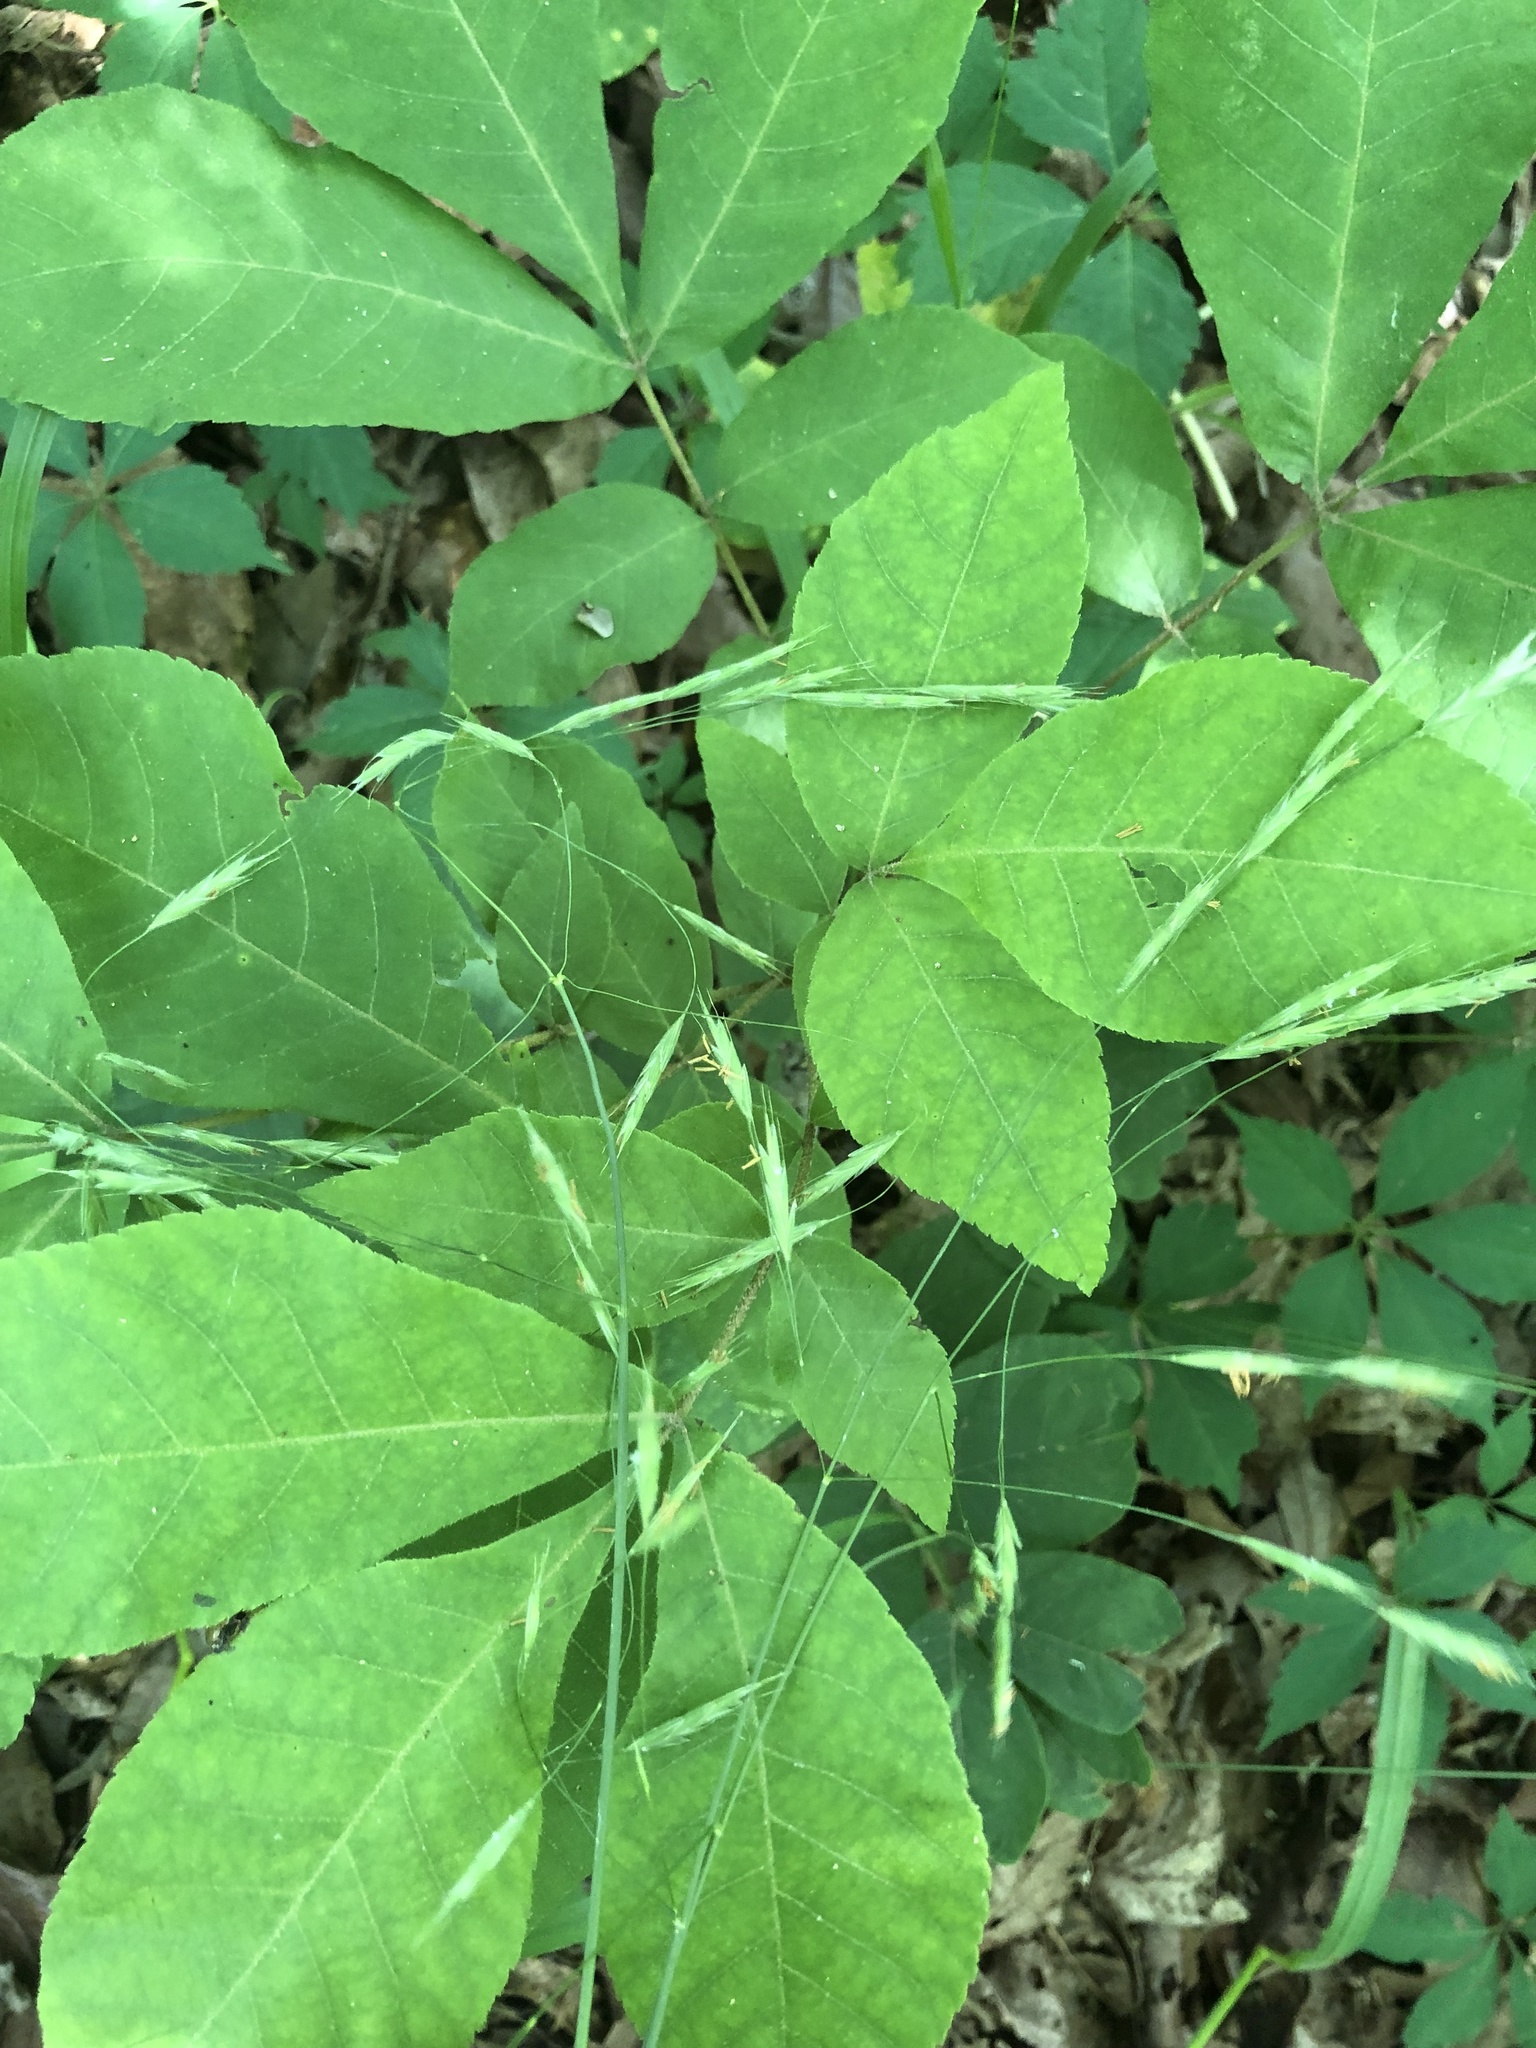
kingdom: Plantae
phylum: Tracheophyta
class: Liliopsida
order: Poales
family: Poaceae
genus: Bromus
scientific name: Bromus pubescens
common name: Hairy wood brome grass
